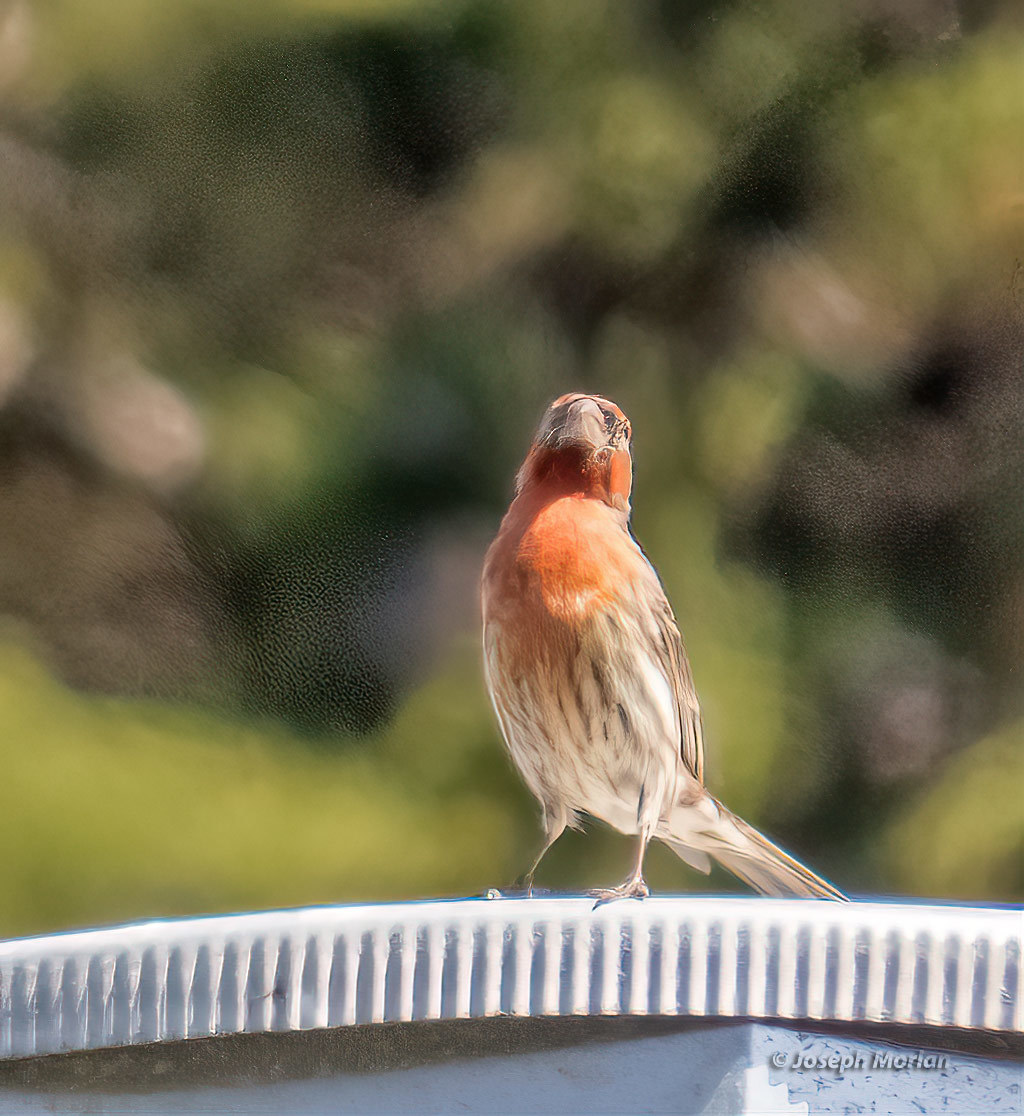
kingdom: Animalia
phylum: Chordata
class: Aves
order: Passeriformes
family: Fringillidae
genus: Haemorhous
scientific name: Haemorhous mexicanus
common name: House finch
